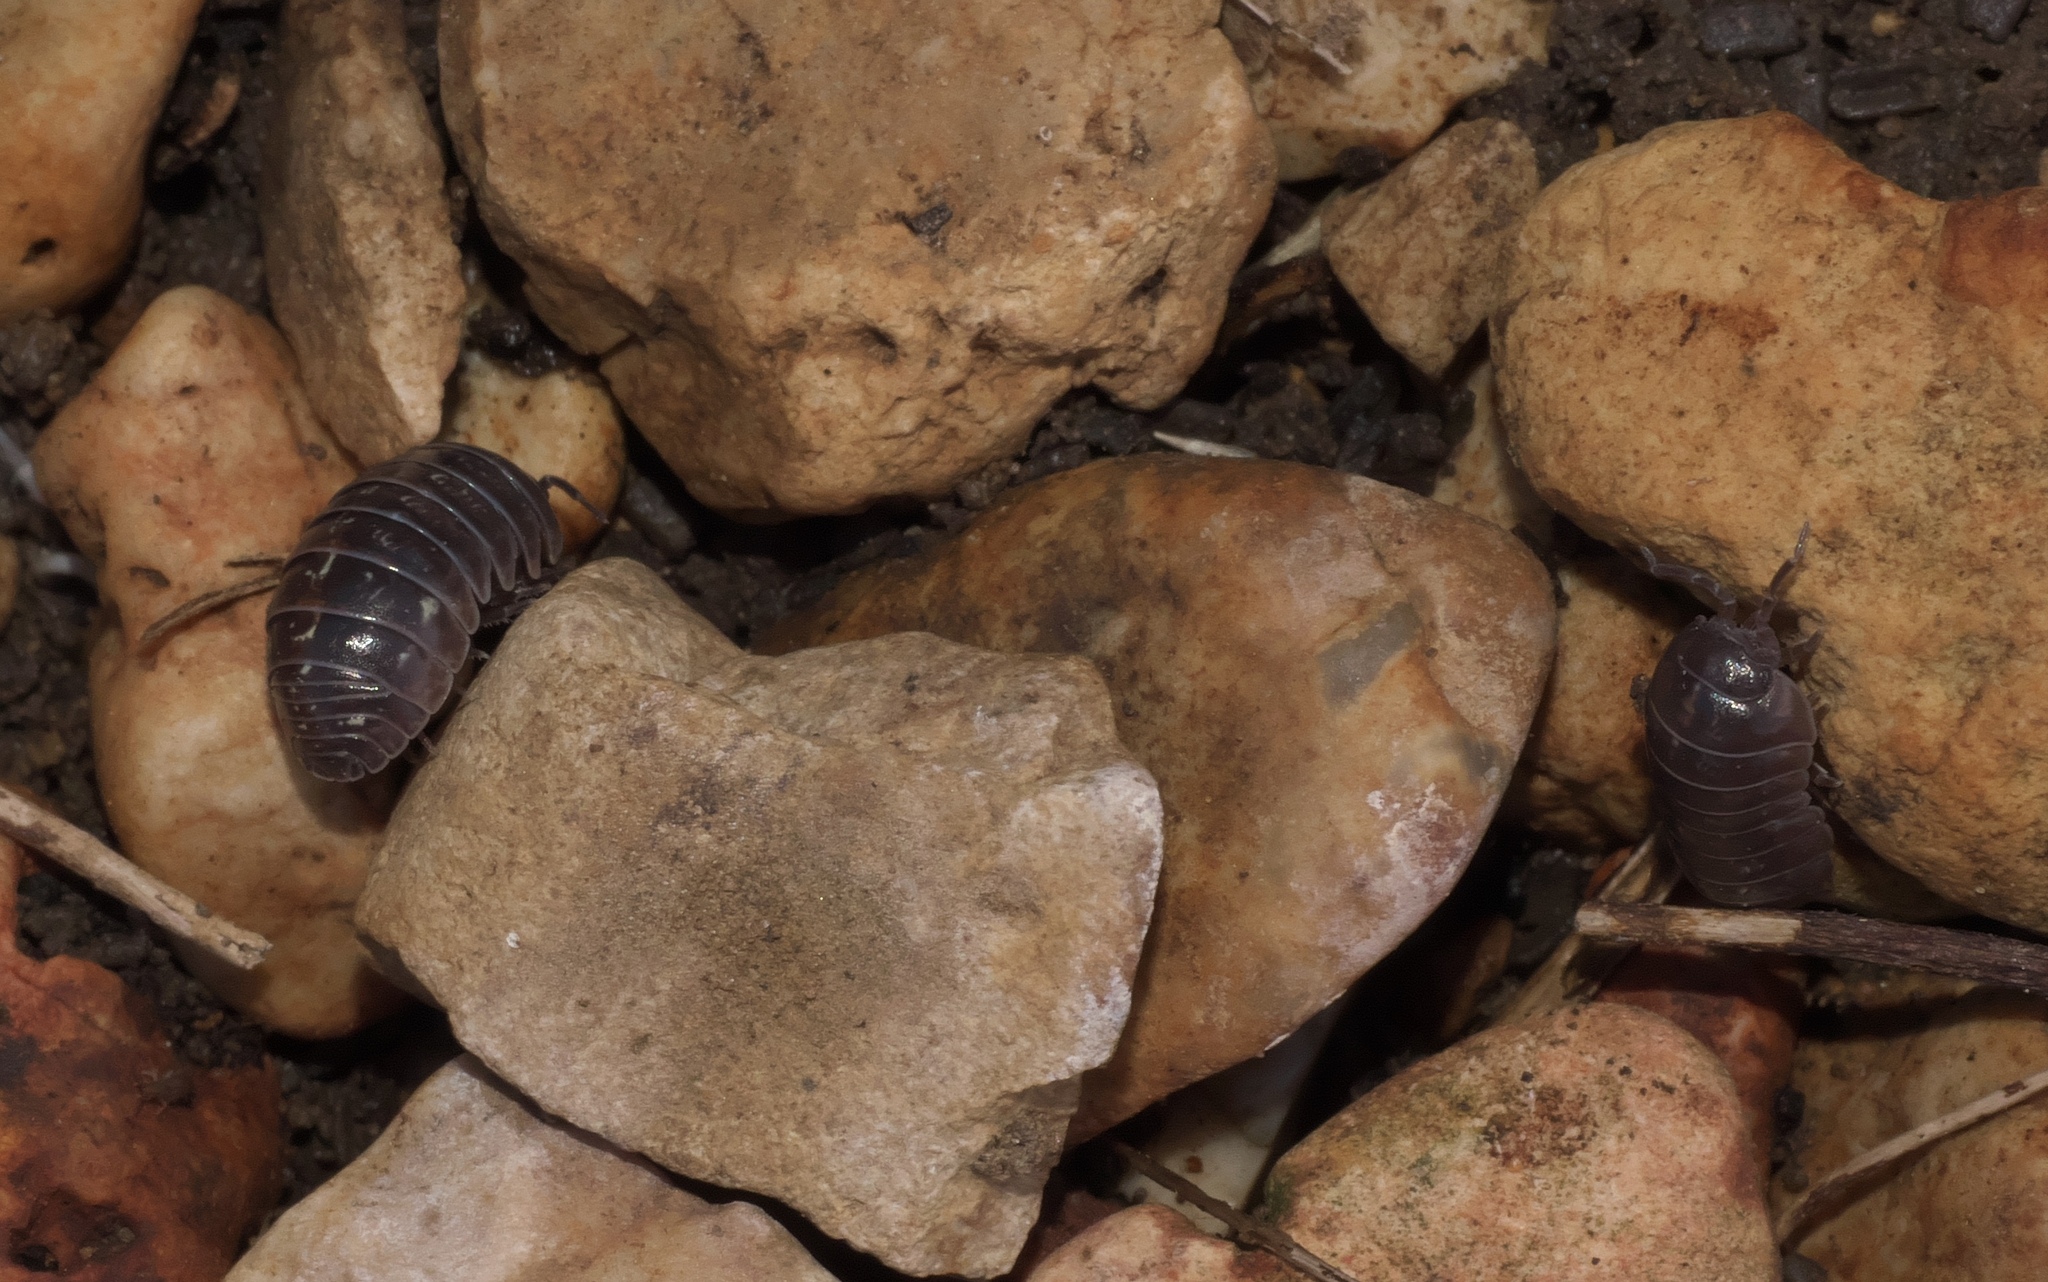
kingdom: Animalia
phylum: Arthropoda
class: Malacostraca
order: Isopoda
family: Armadillidiidae
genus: Armadillidium
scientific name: Armadillidium vulgare
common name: Common pill woodlouse
